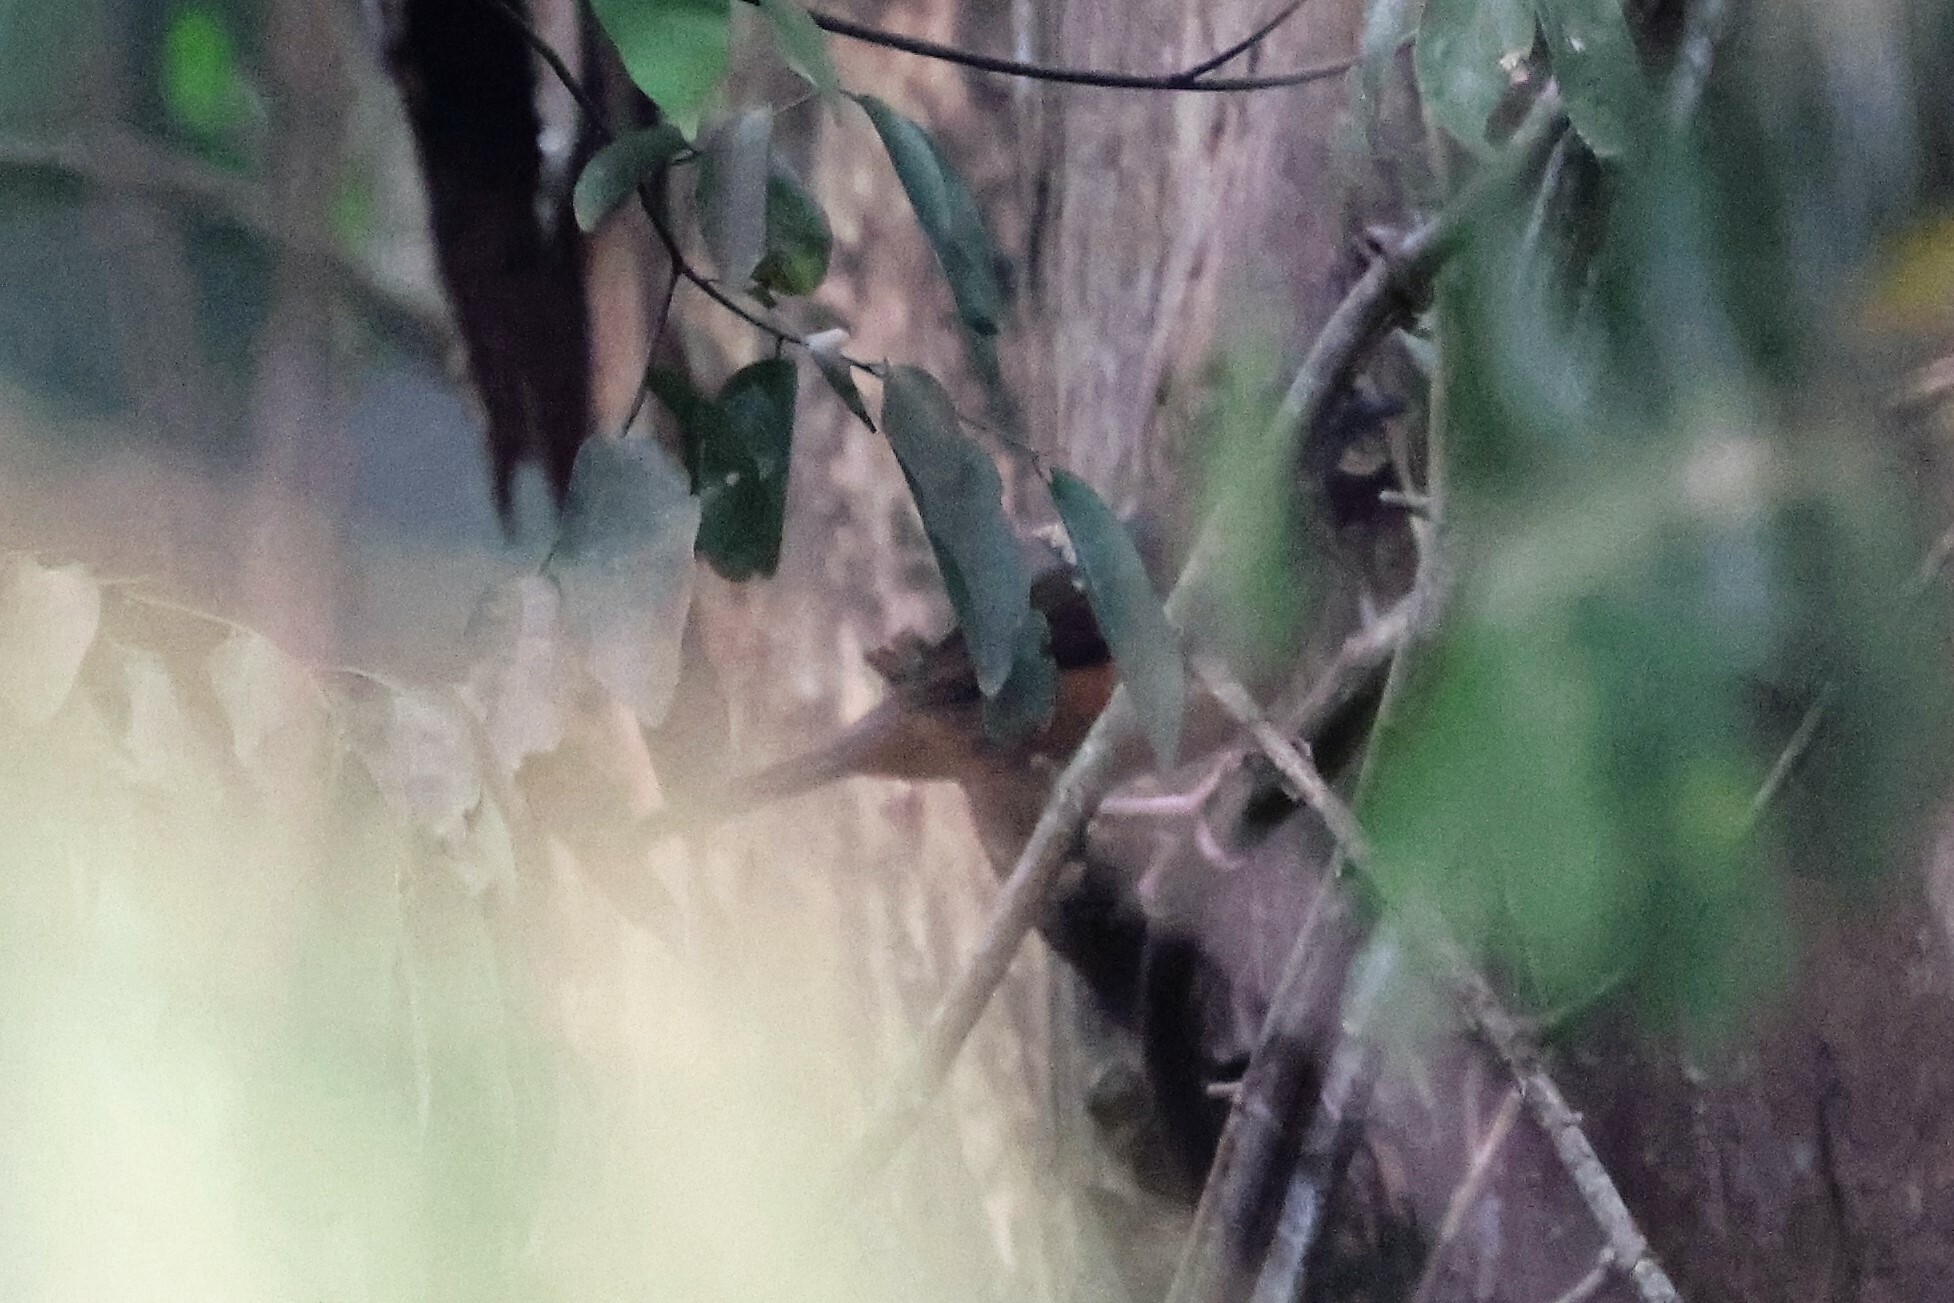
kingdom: Animalia
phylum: Chordata
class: Aves
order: Passeriformes
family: Turdidae
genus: Neocossyphus
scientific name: Neocossyphus poensis
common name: White-tailed rufous thrush
